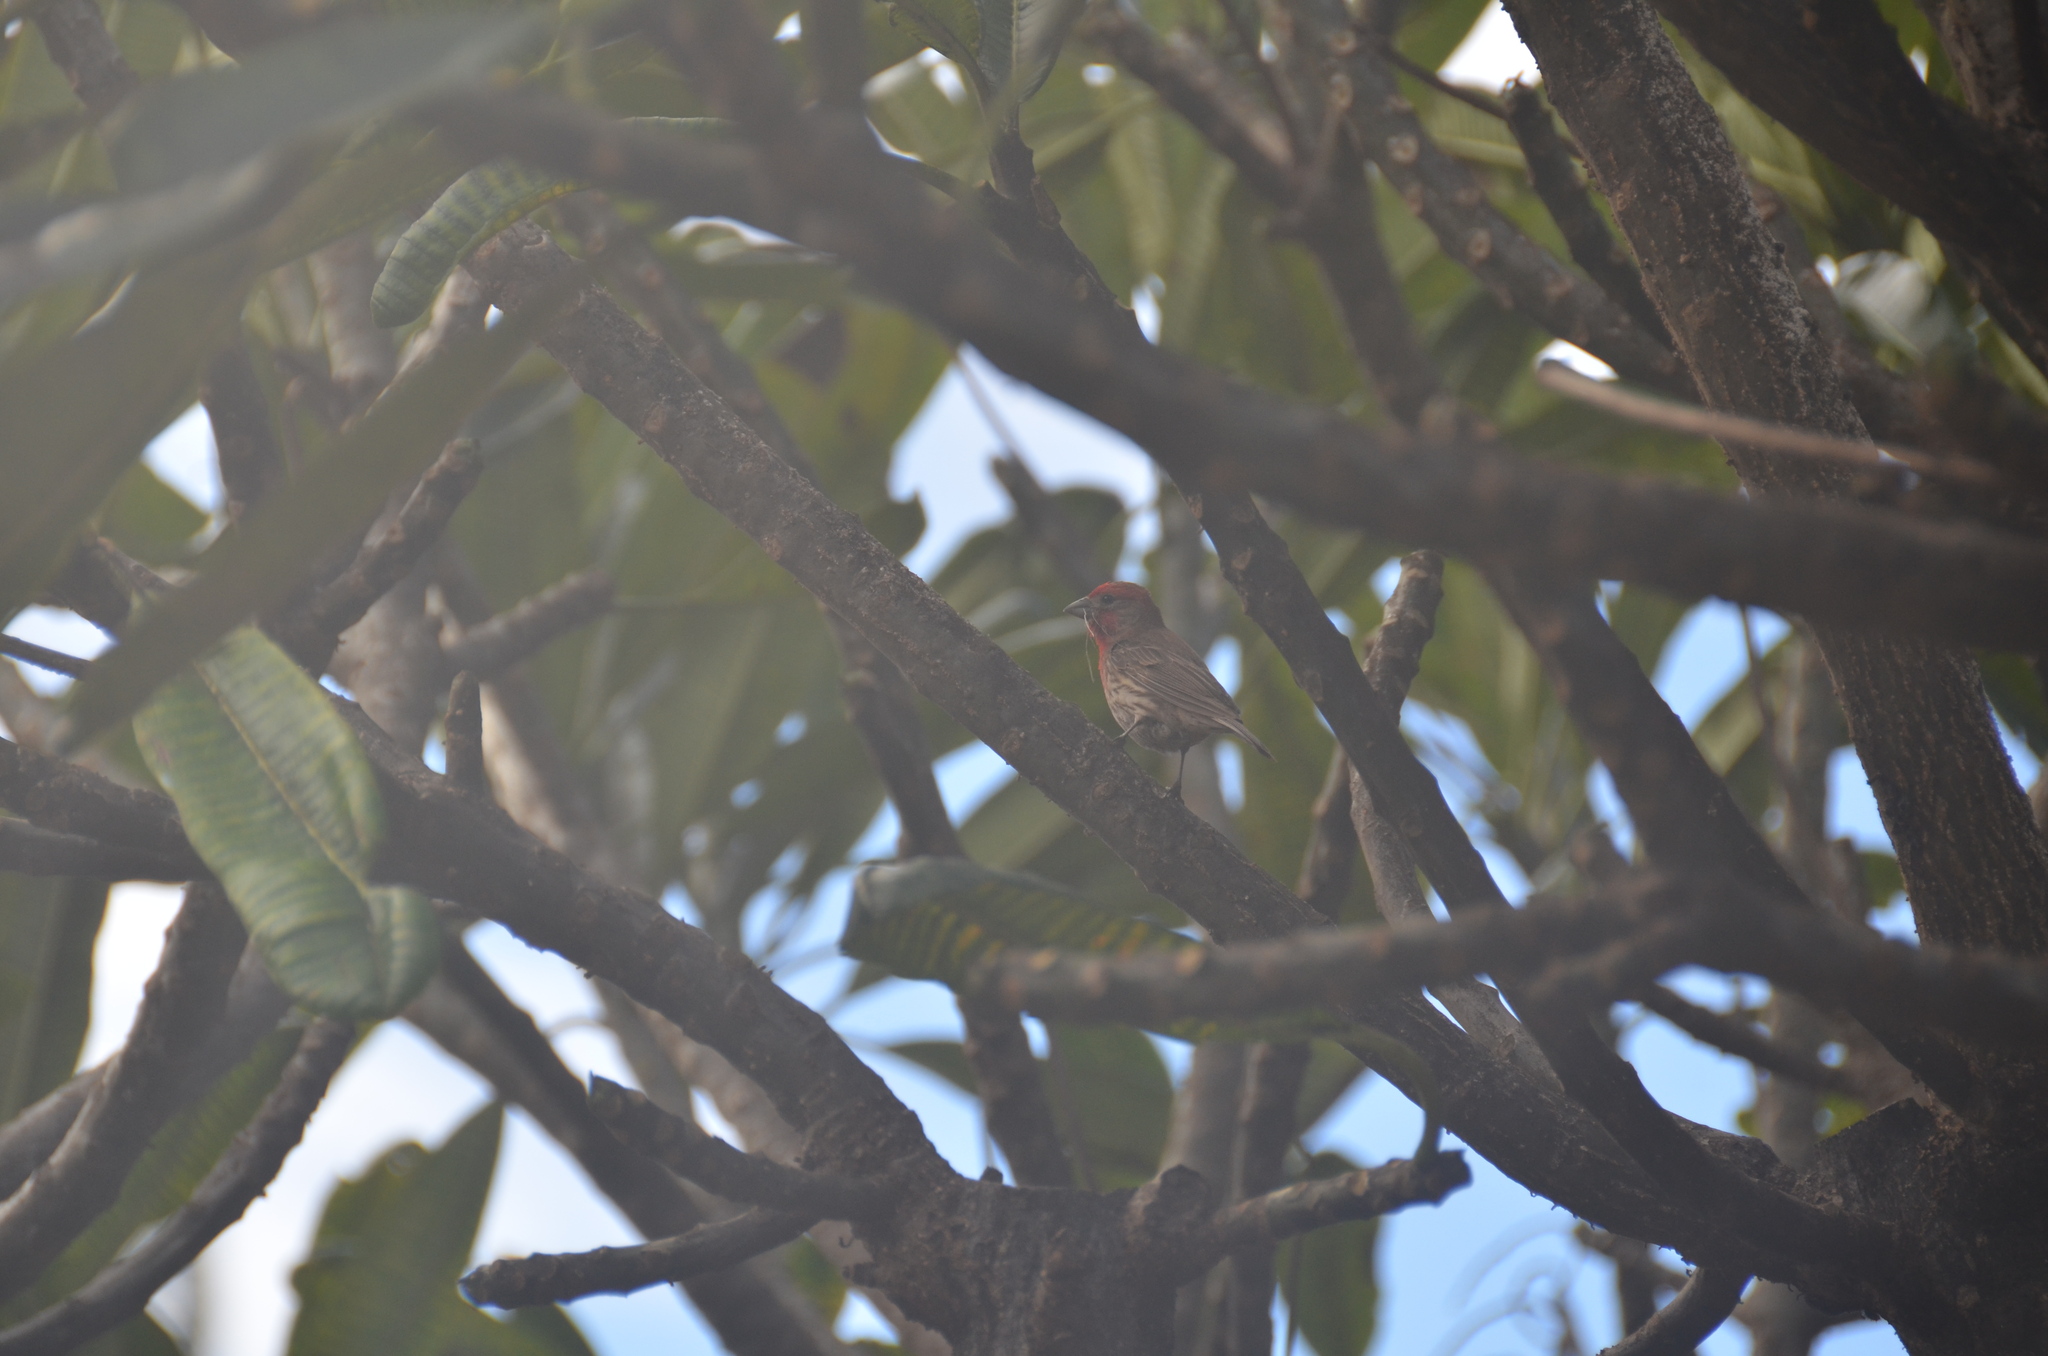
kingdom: Animalia
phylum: Chordata
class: Aves
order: Passeriformes
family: Fringillidae
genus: Haemorhous
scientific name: Haemorhous mexicanus
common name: House finch
